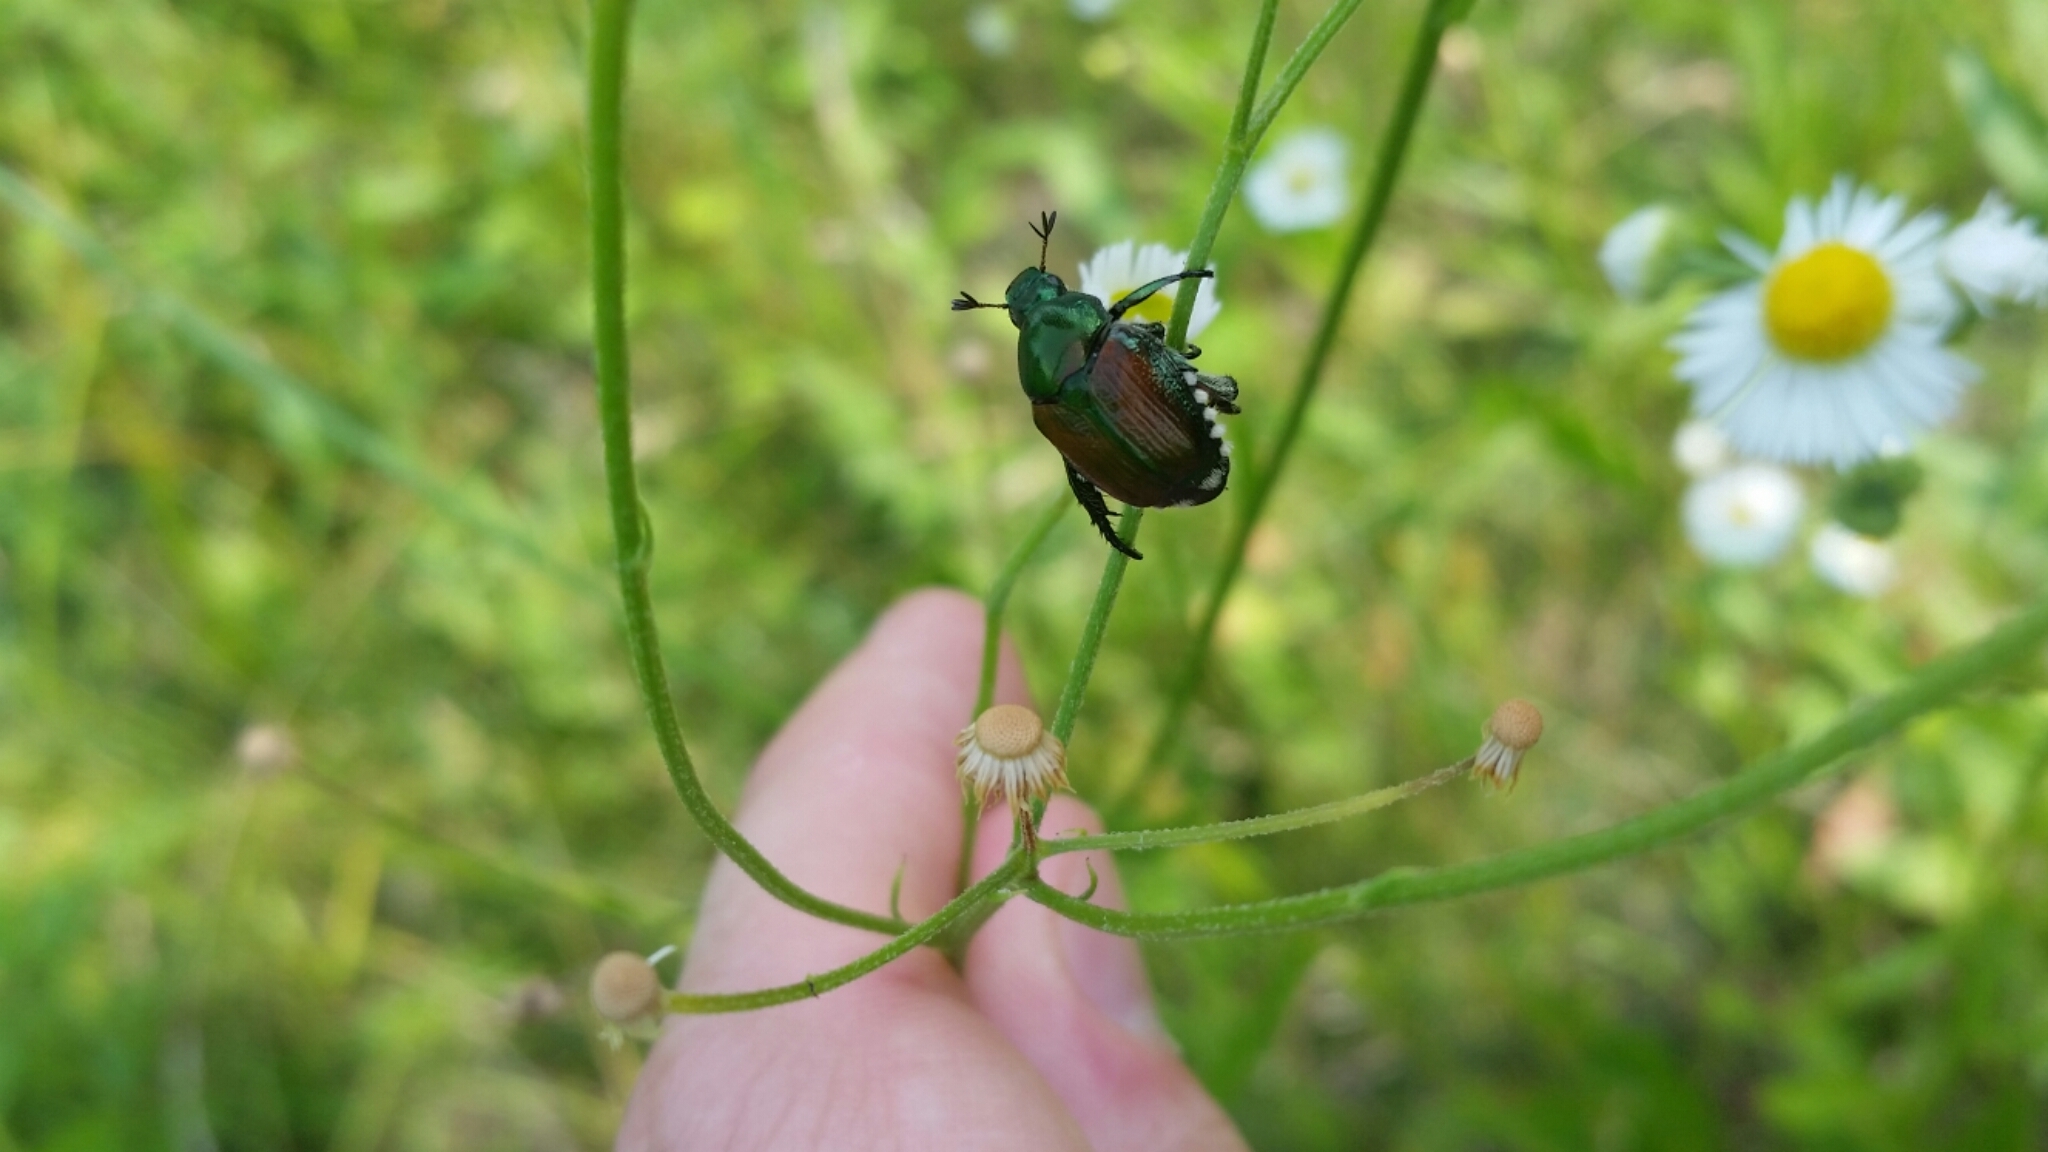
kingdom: Animalia
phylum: Arthropoda
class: Insecta
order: Coleoptera
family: Scarabaeidae
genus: Popillia
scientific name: Popillia japonica
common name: Japanese beetle
